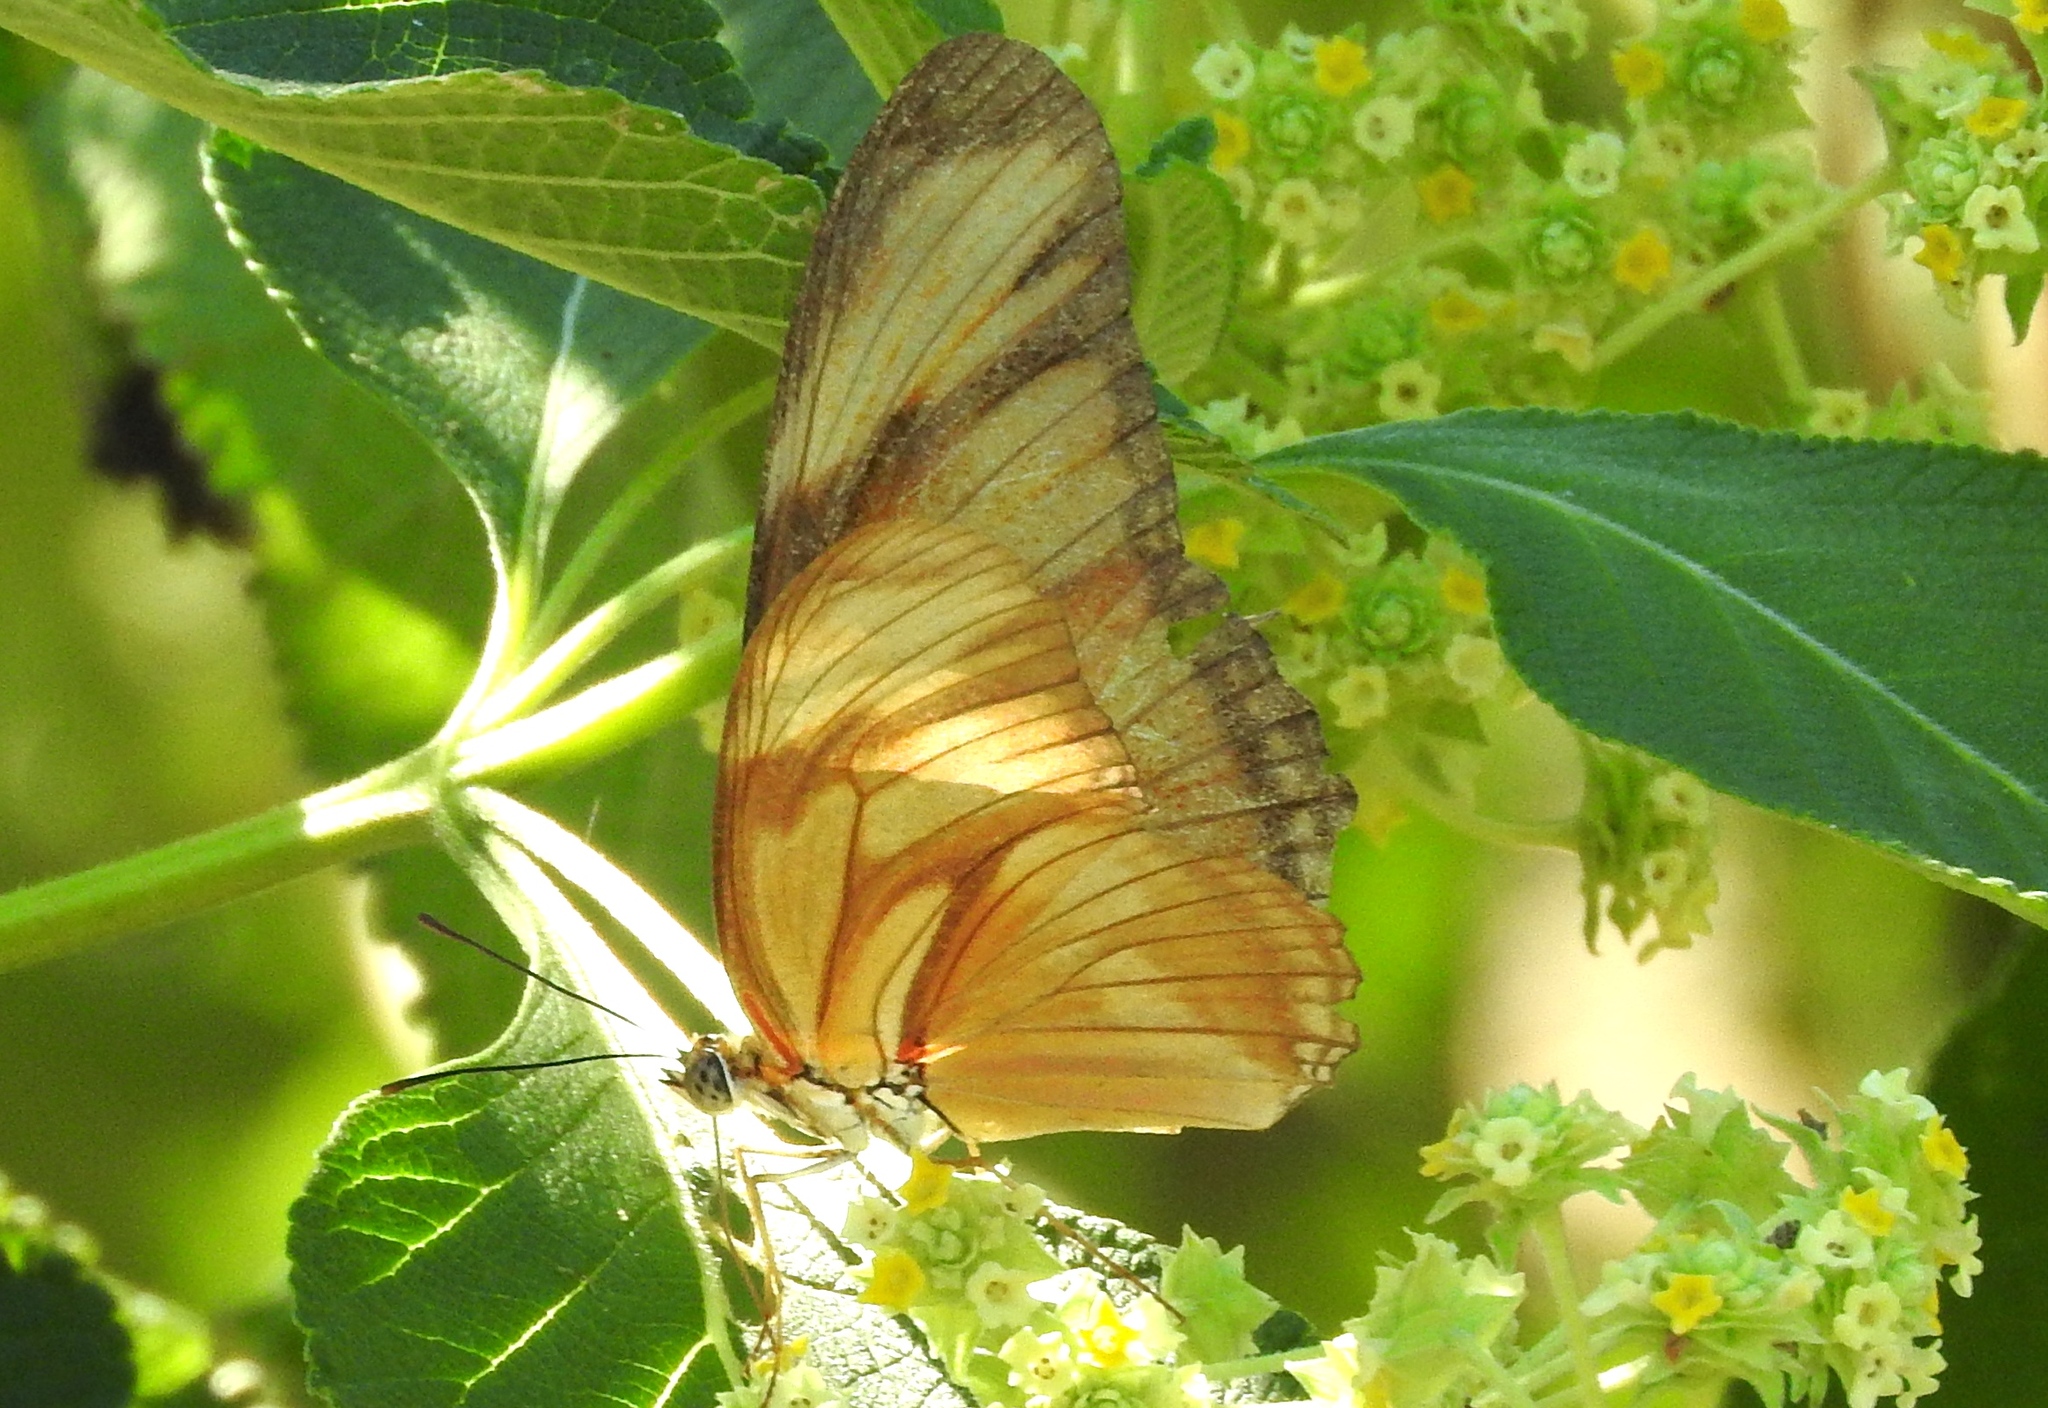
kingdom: Animalia
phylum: Arthropoda
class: Insecta
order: Lepidoptera
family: Nymphalidae
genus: Dryas
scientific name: Dryas iulia
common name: Flambeau
